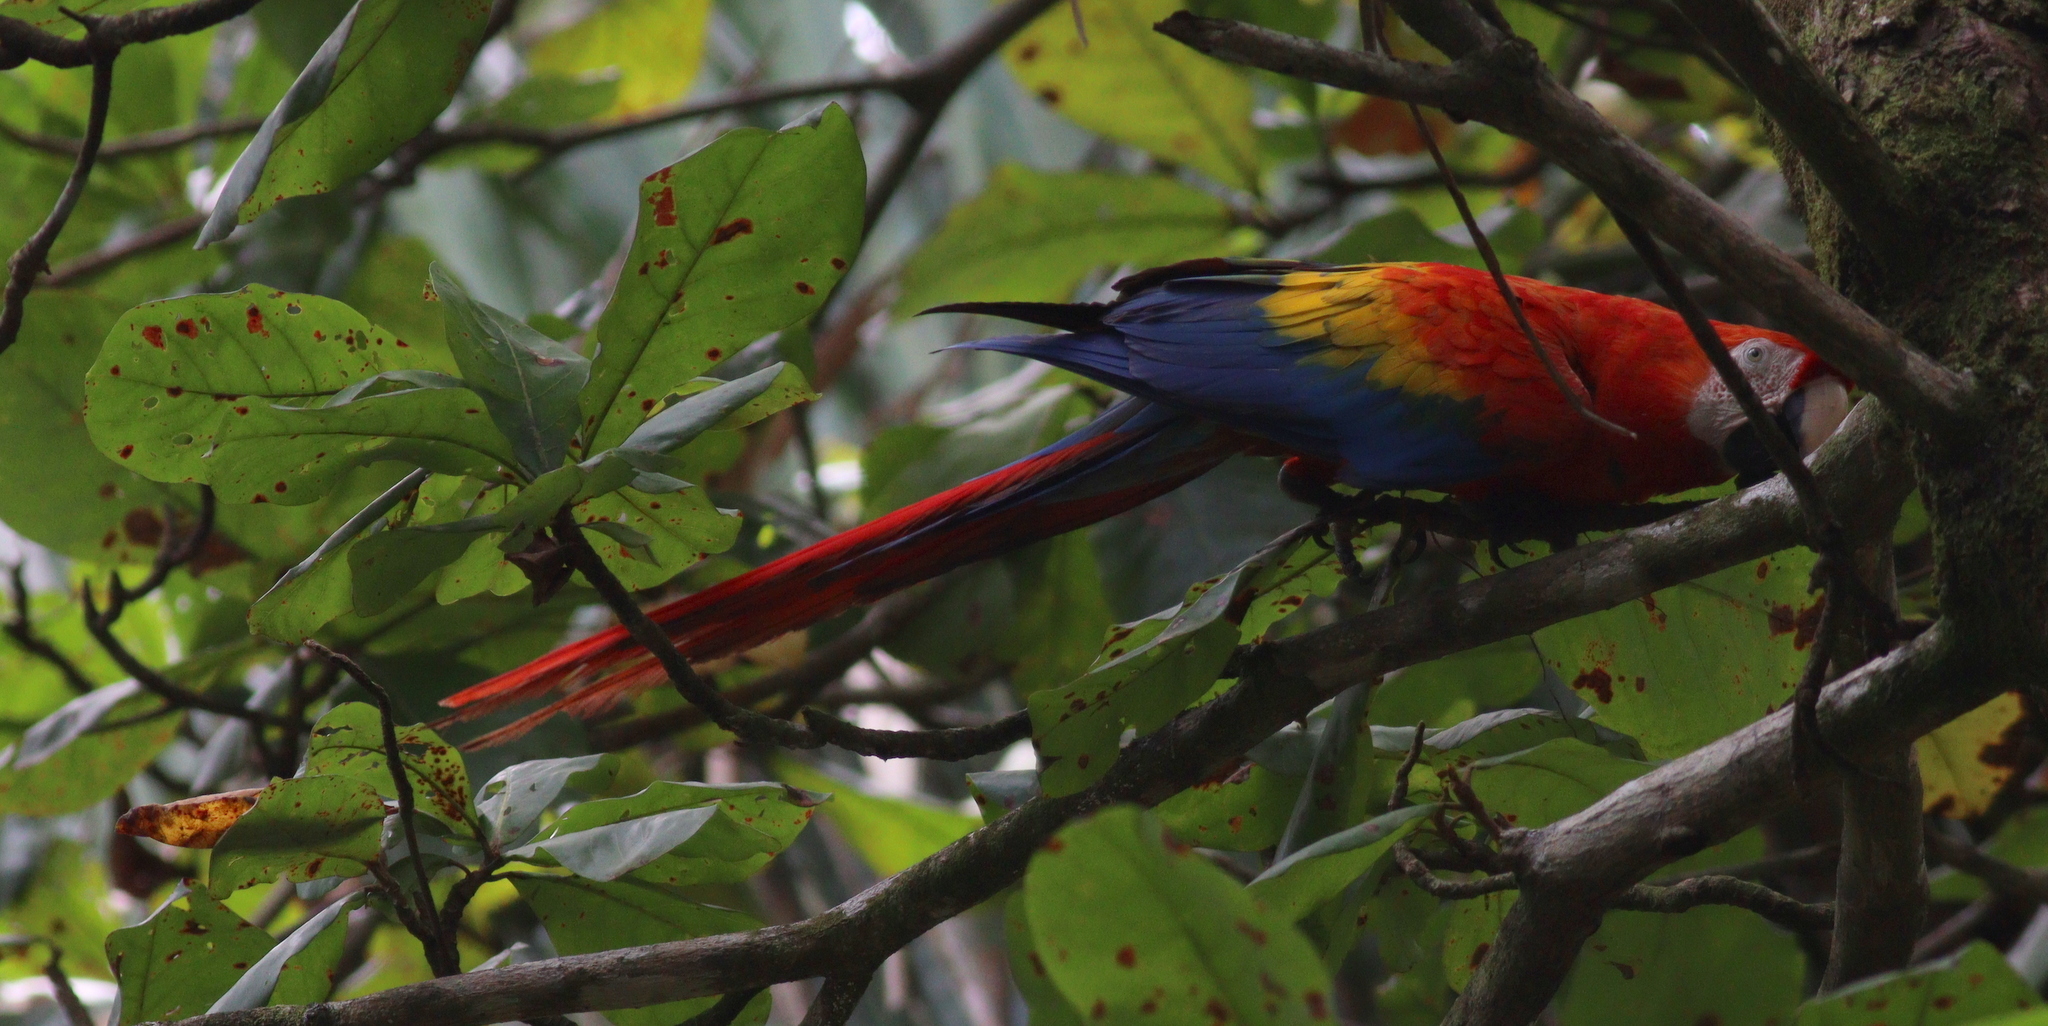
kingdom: Animalia
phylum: Chordata
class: Aves
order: Psittaciformes
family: Psittacidae
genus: Ara
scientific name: Ara macao
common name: Scarlet macaw
